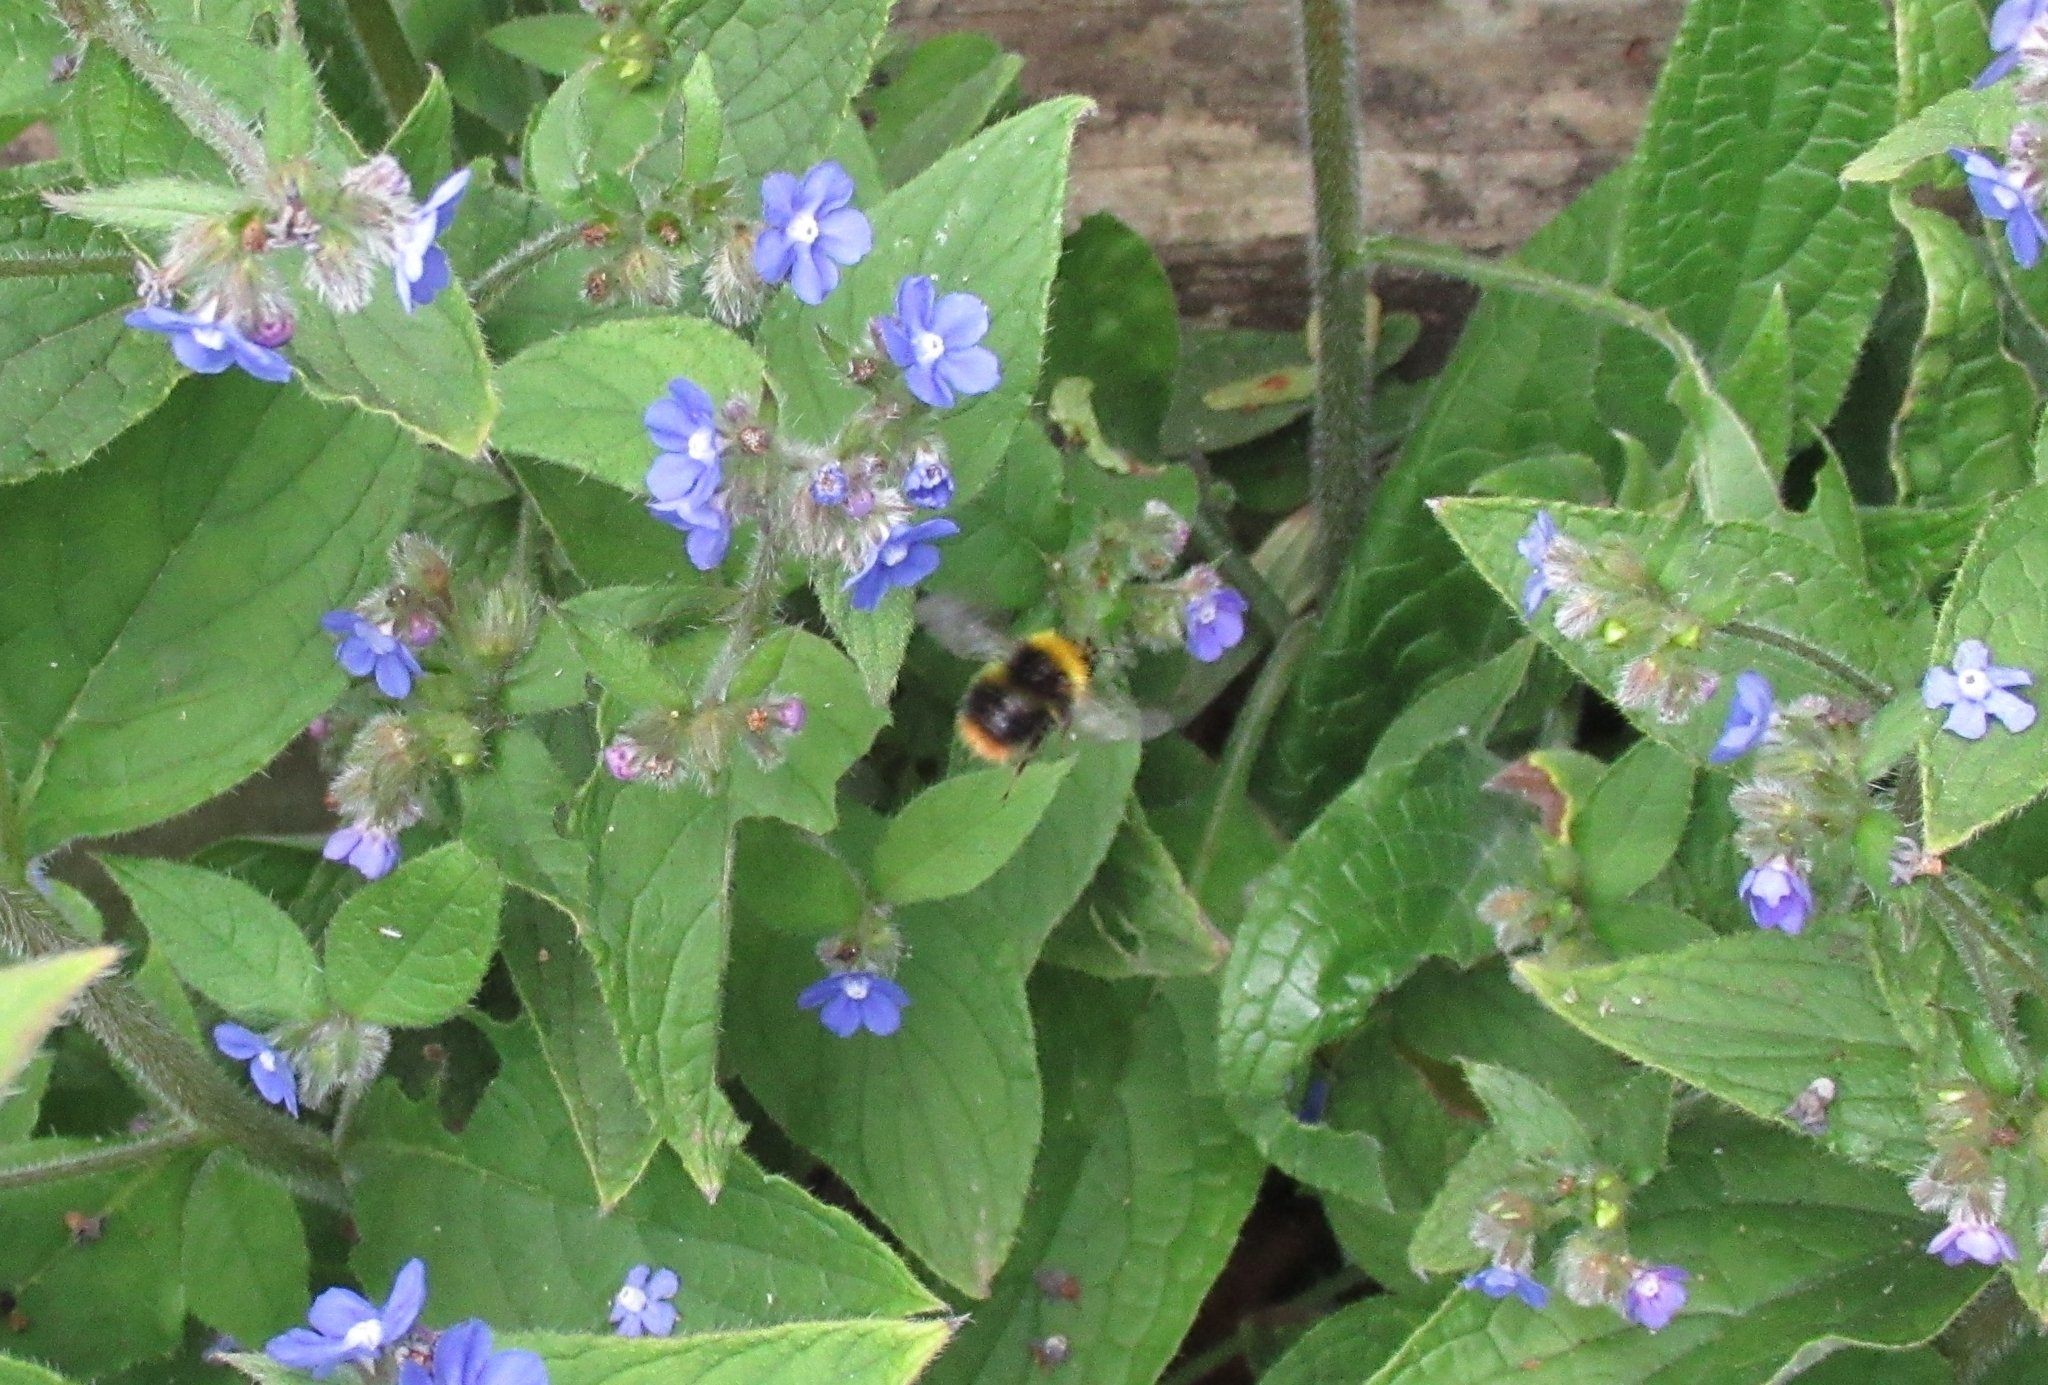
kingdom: Animalia
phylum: Arthropoda
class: Insecta
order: Hymenoptera
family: Apidae
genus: Bombus
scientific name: Bombus pratorum
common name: Early humble-bee
